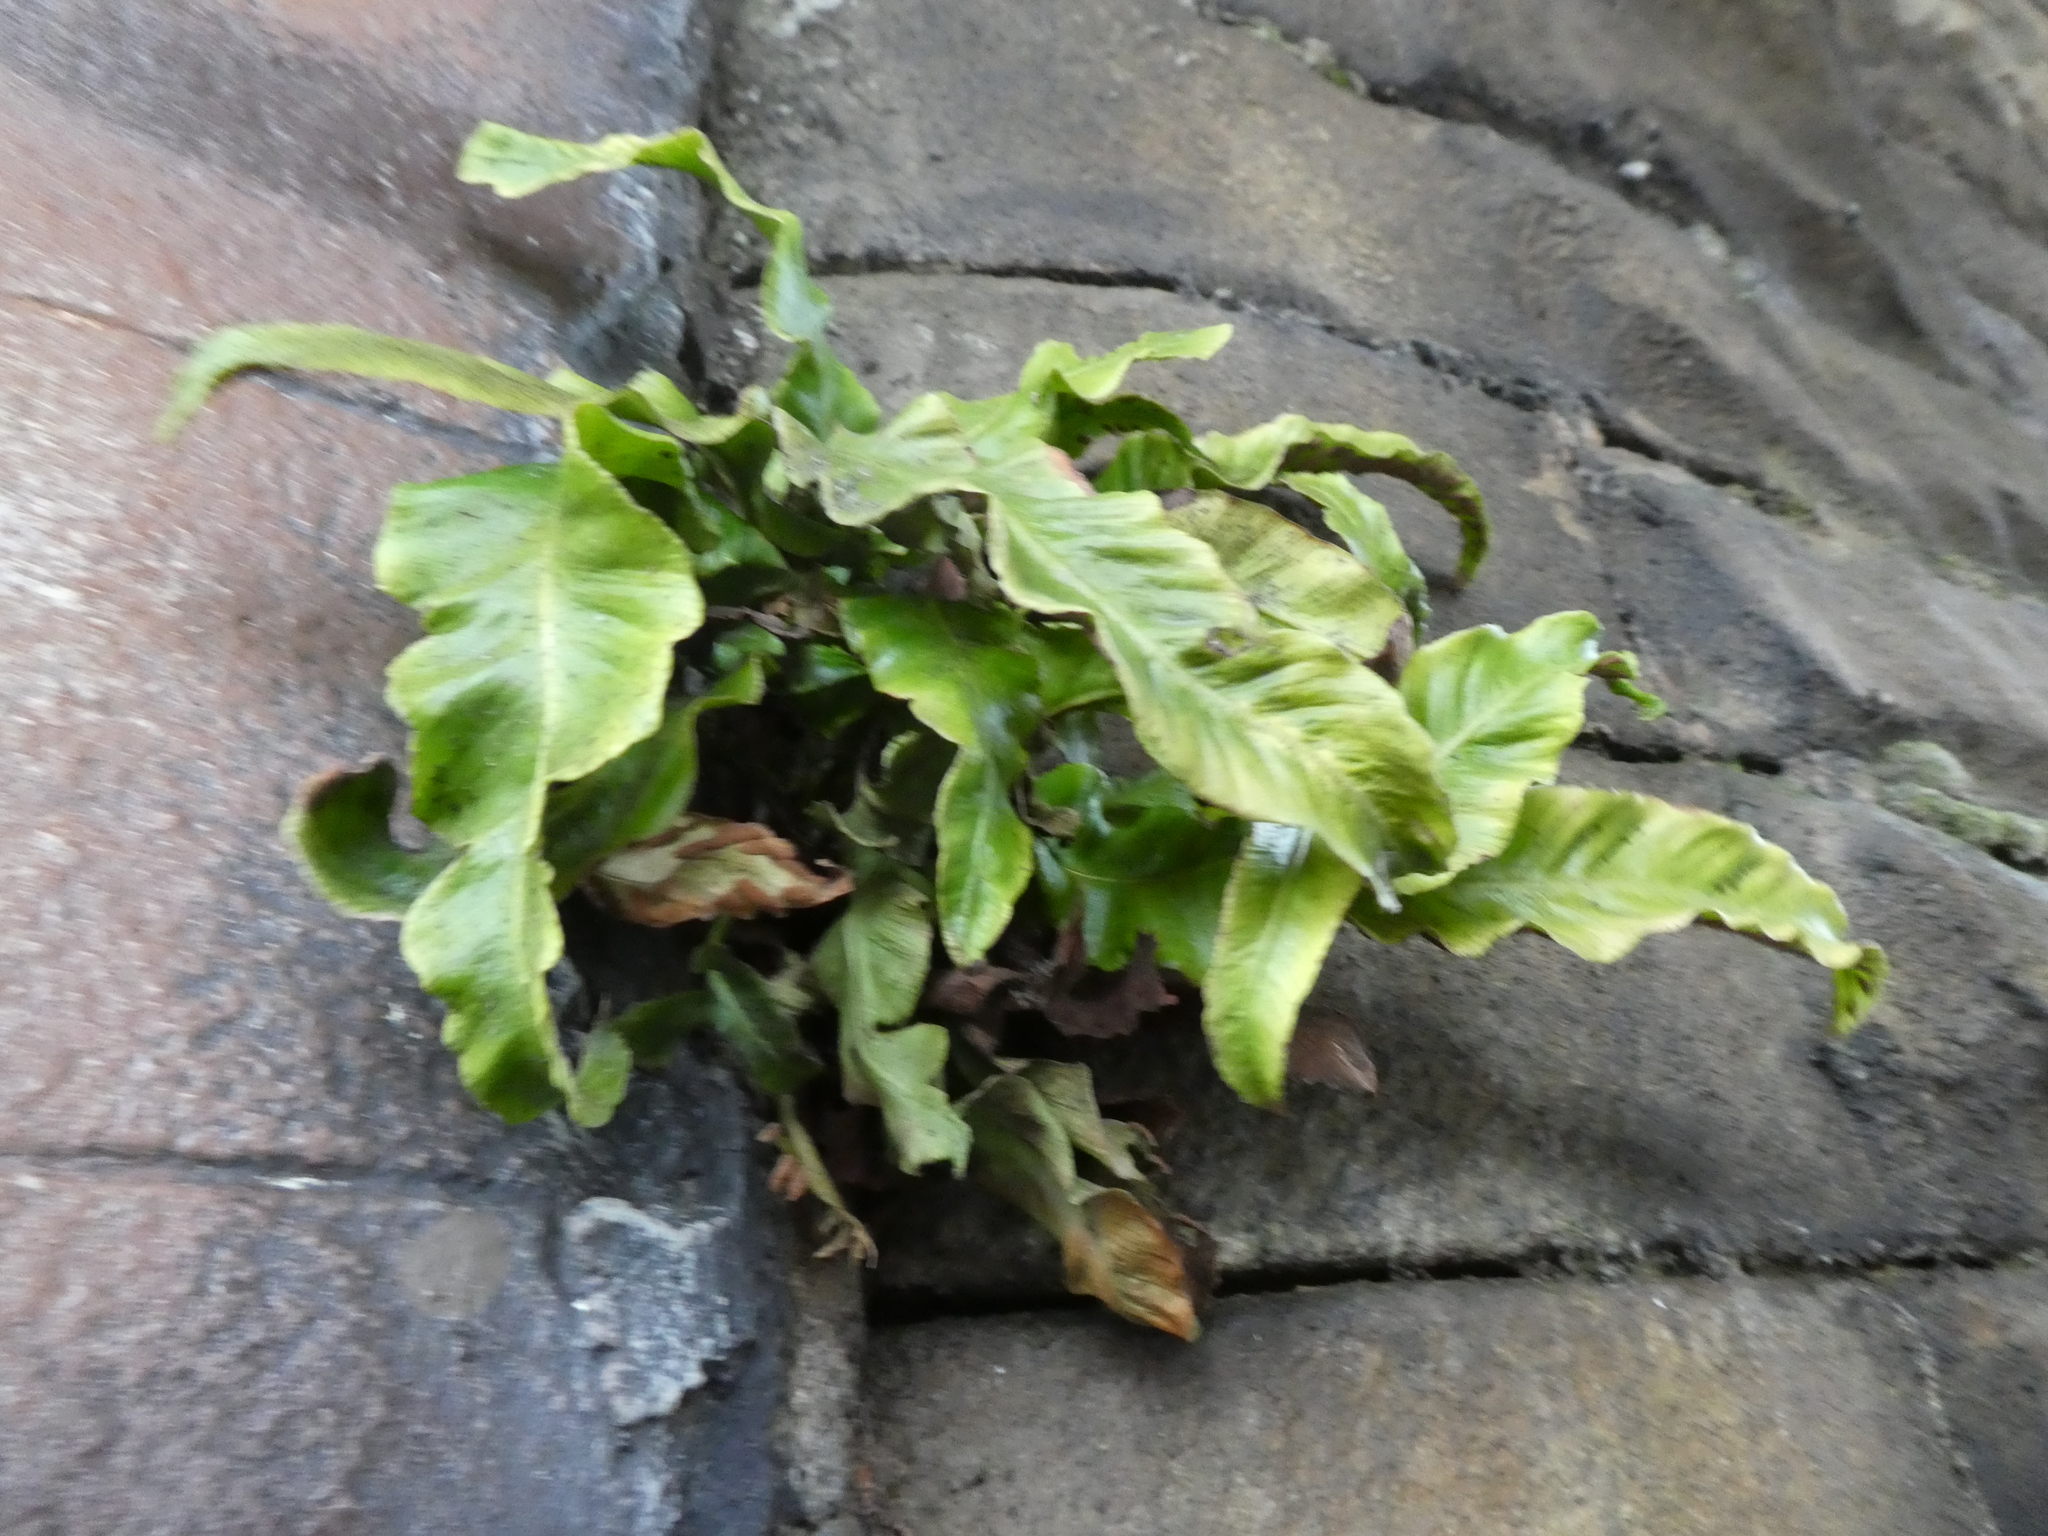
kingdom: Plantae
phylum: Tracheophyta
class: Polypodiopsida
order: Polypodiales
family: Aspleniaceae
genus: Asplenium
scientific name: Asplenium scolopendrium
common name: Hart's-tongue fern
